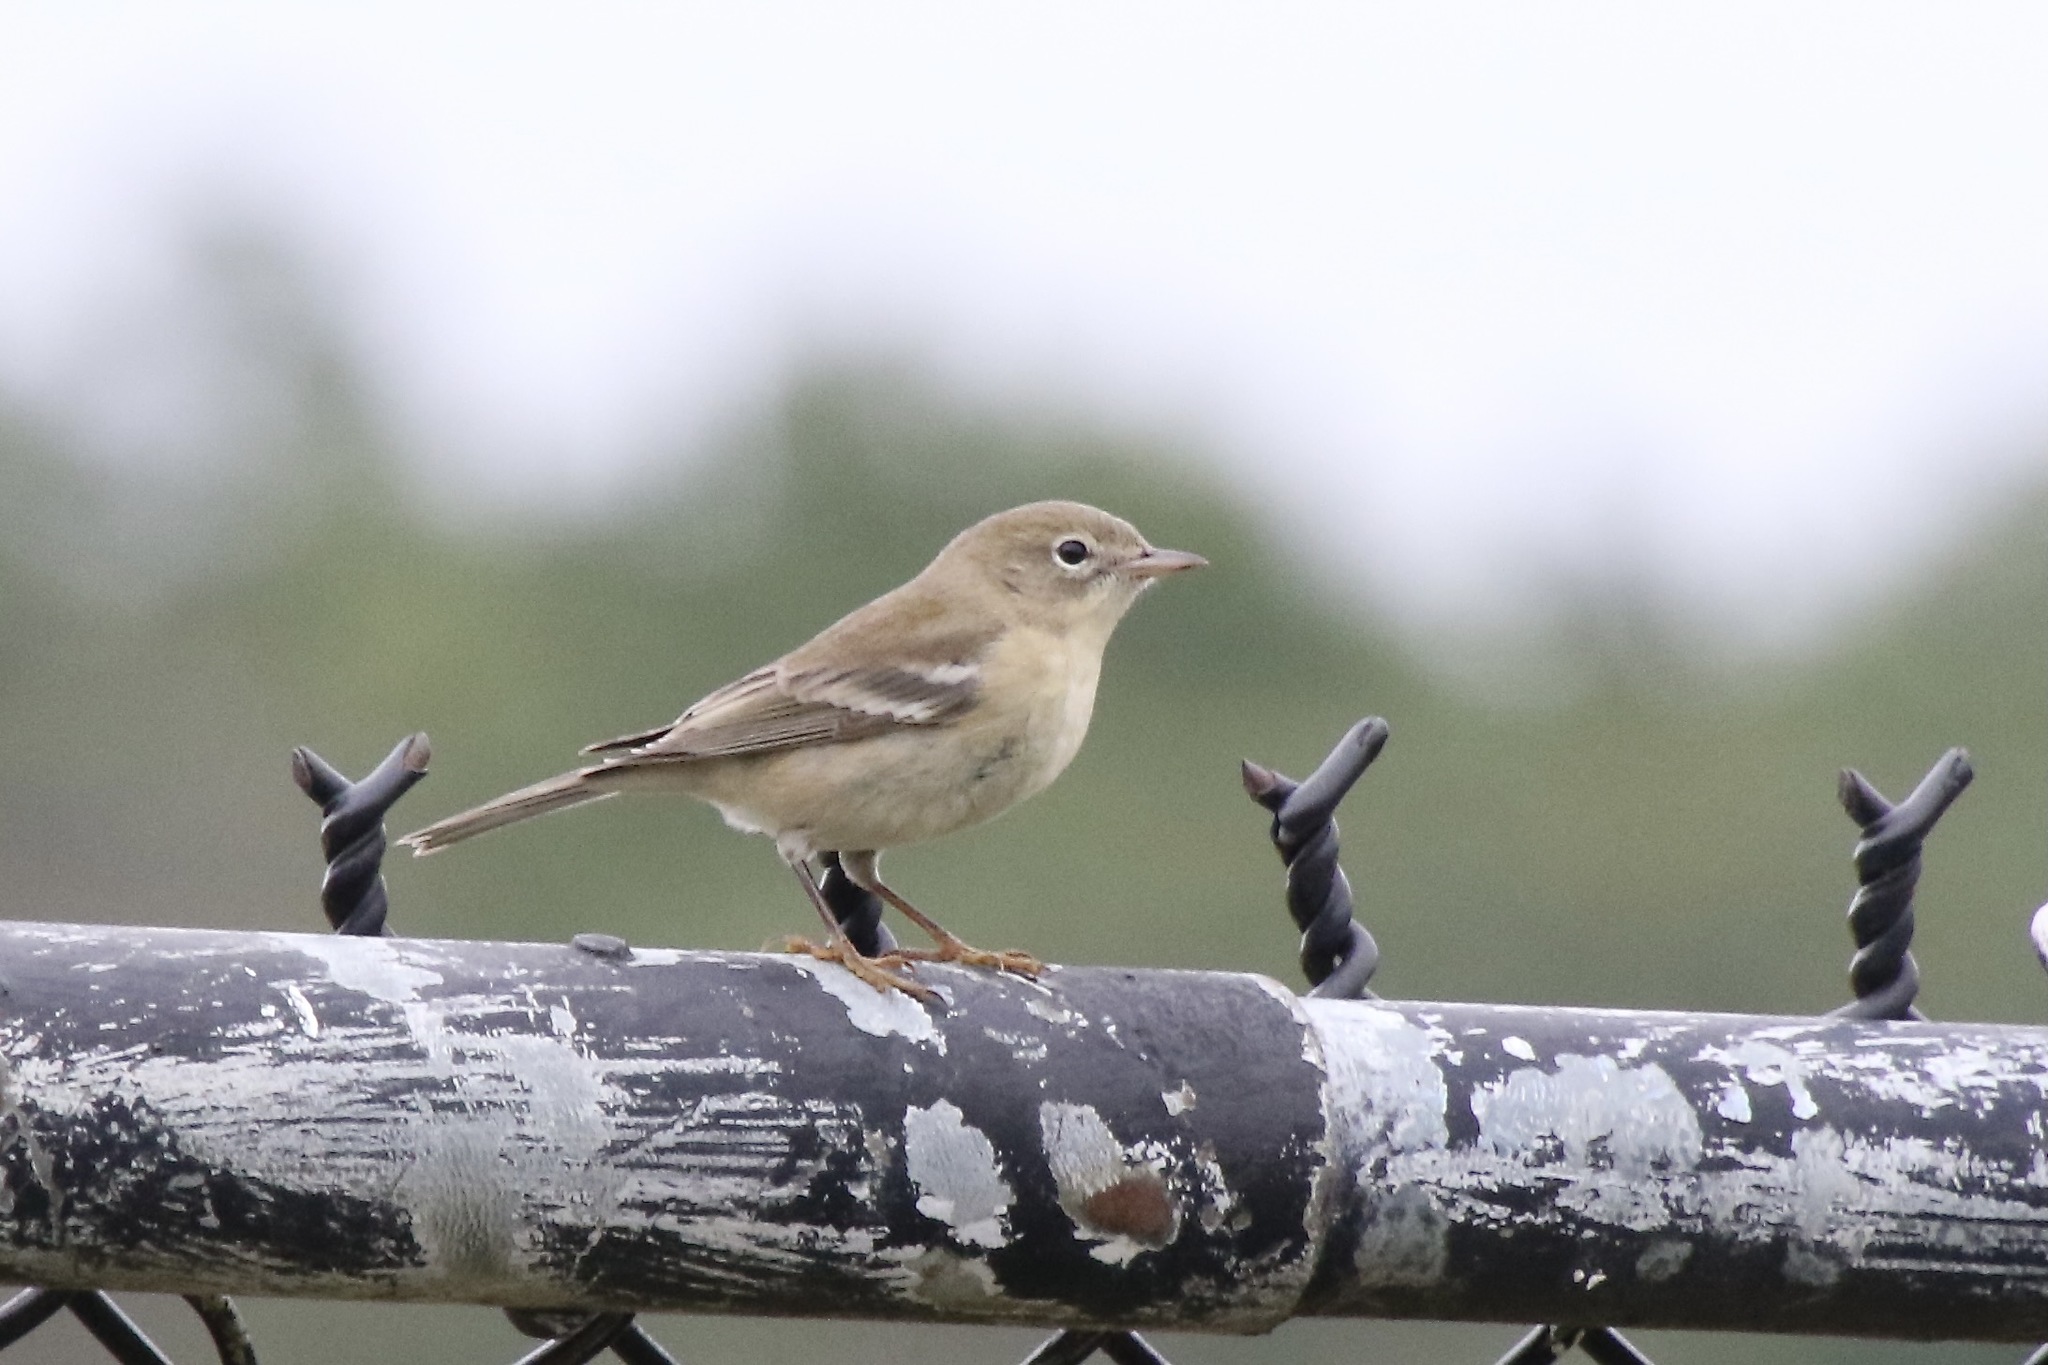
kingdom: Animalia
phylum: Chordata
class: Aves
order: Passeriformes
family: Parulidae
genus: Setophaga
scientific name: Setophaga pinus
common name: Pine warbler
